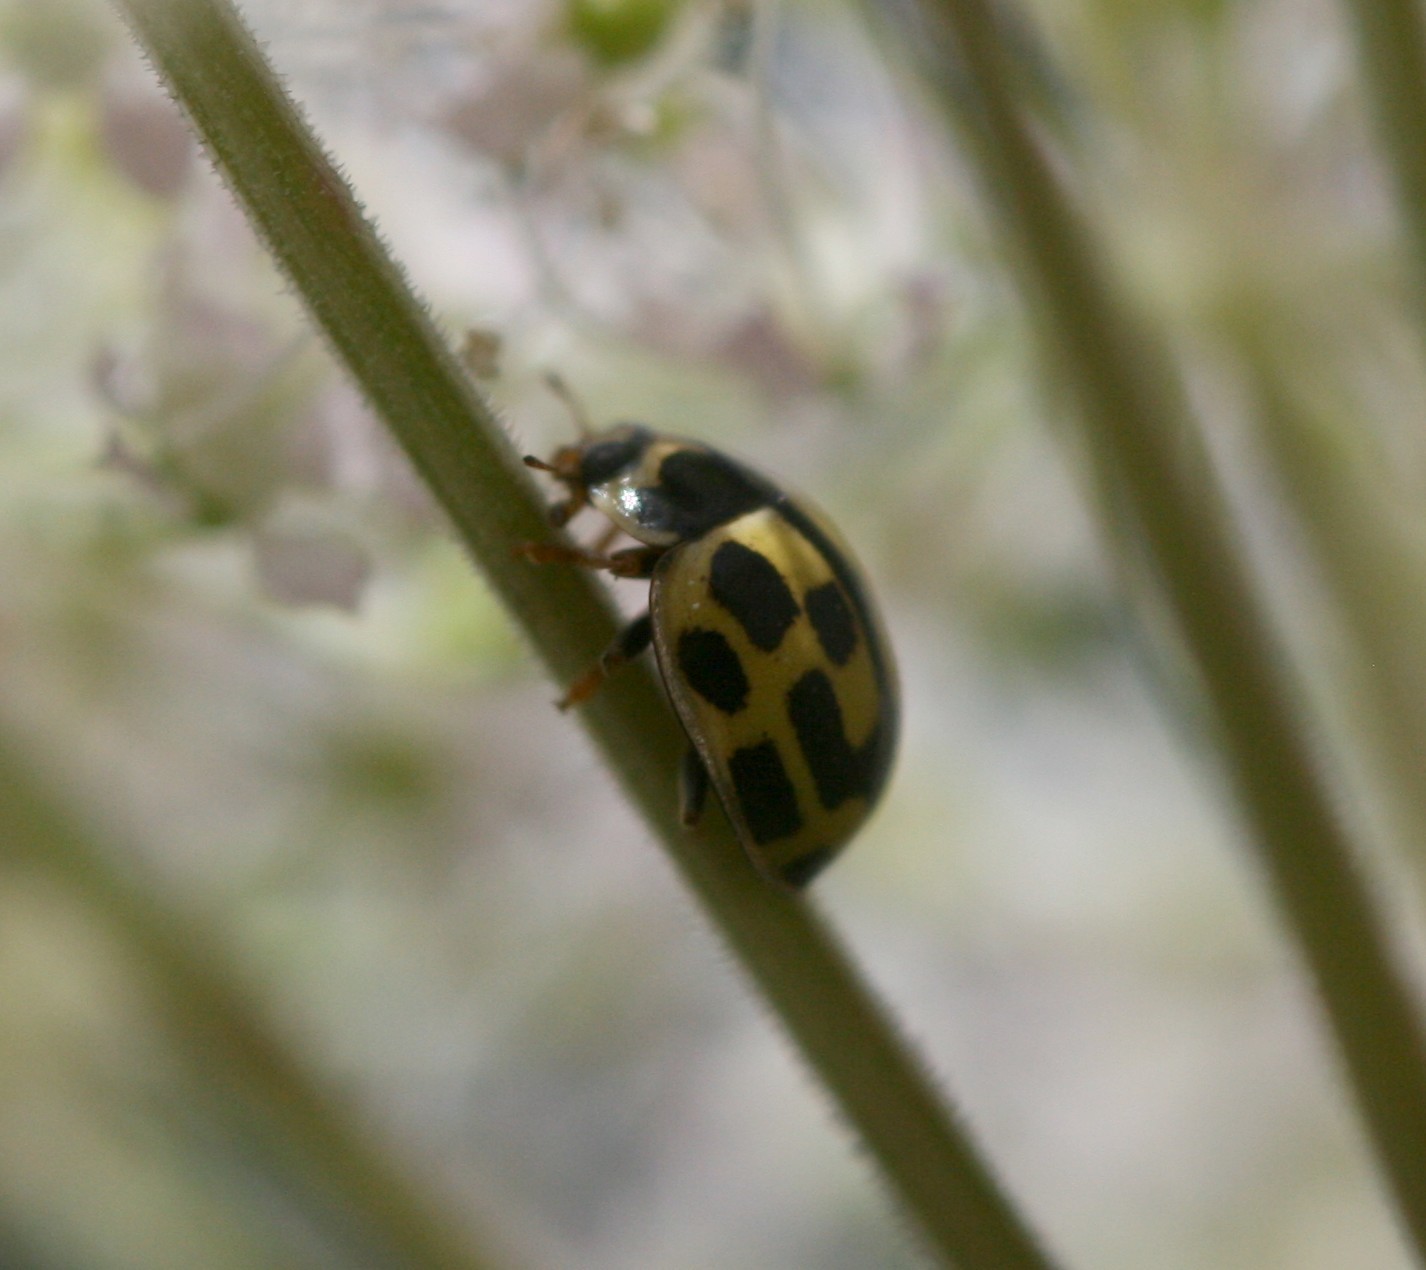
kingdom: Animalia
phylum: Arthropoda
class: Insecta
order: Coleoptera
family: Coccinellidae
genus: Propylaea
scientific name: Propylaea quatuordecimpunctata
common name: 14-spotted ladybird beetle
